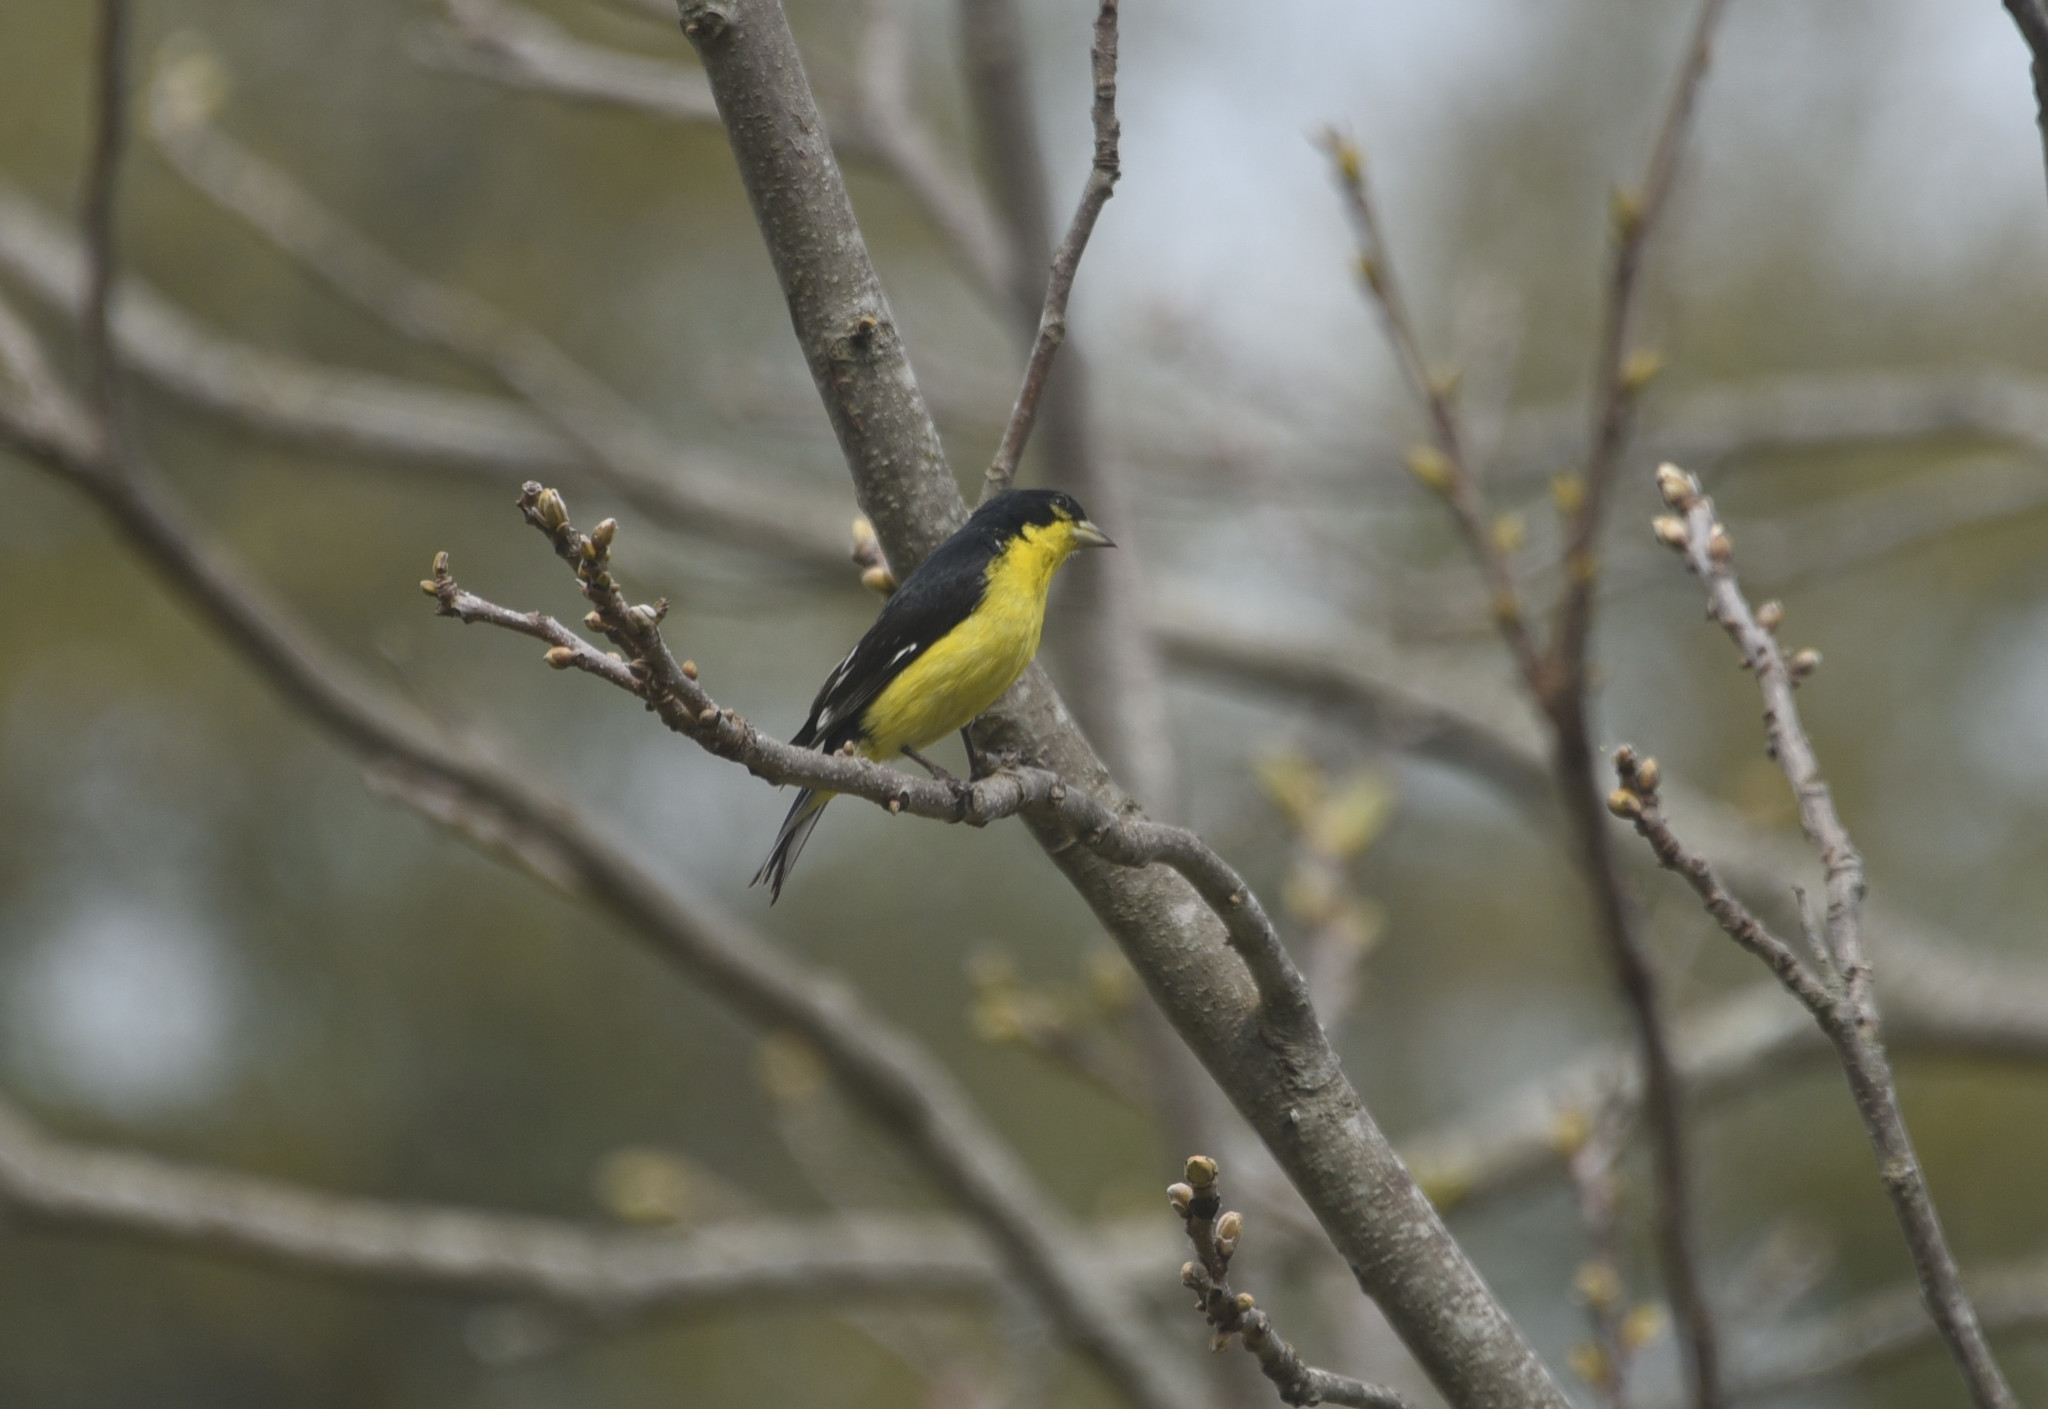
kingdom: Animalia
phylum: Chordata
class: Aves
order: Passeriformes
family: Fringillidae
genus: Spinus
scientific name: Spinus psaltria
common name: Lesser goldfinch
